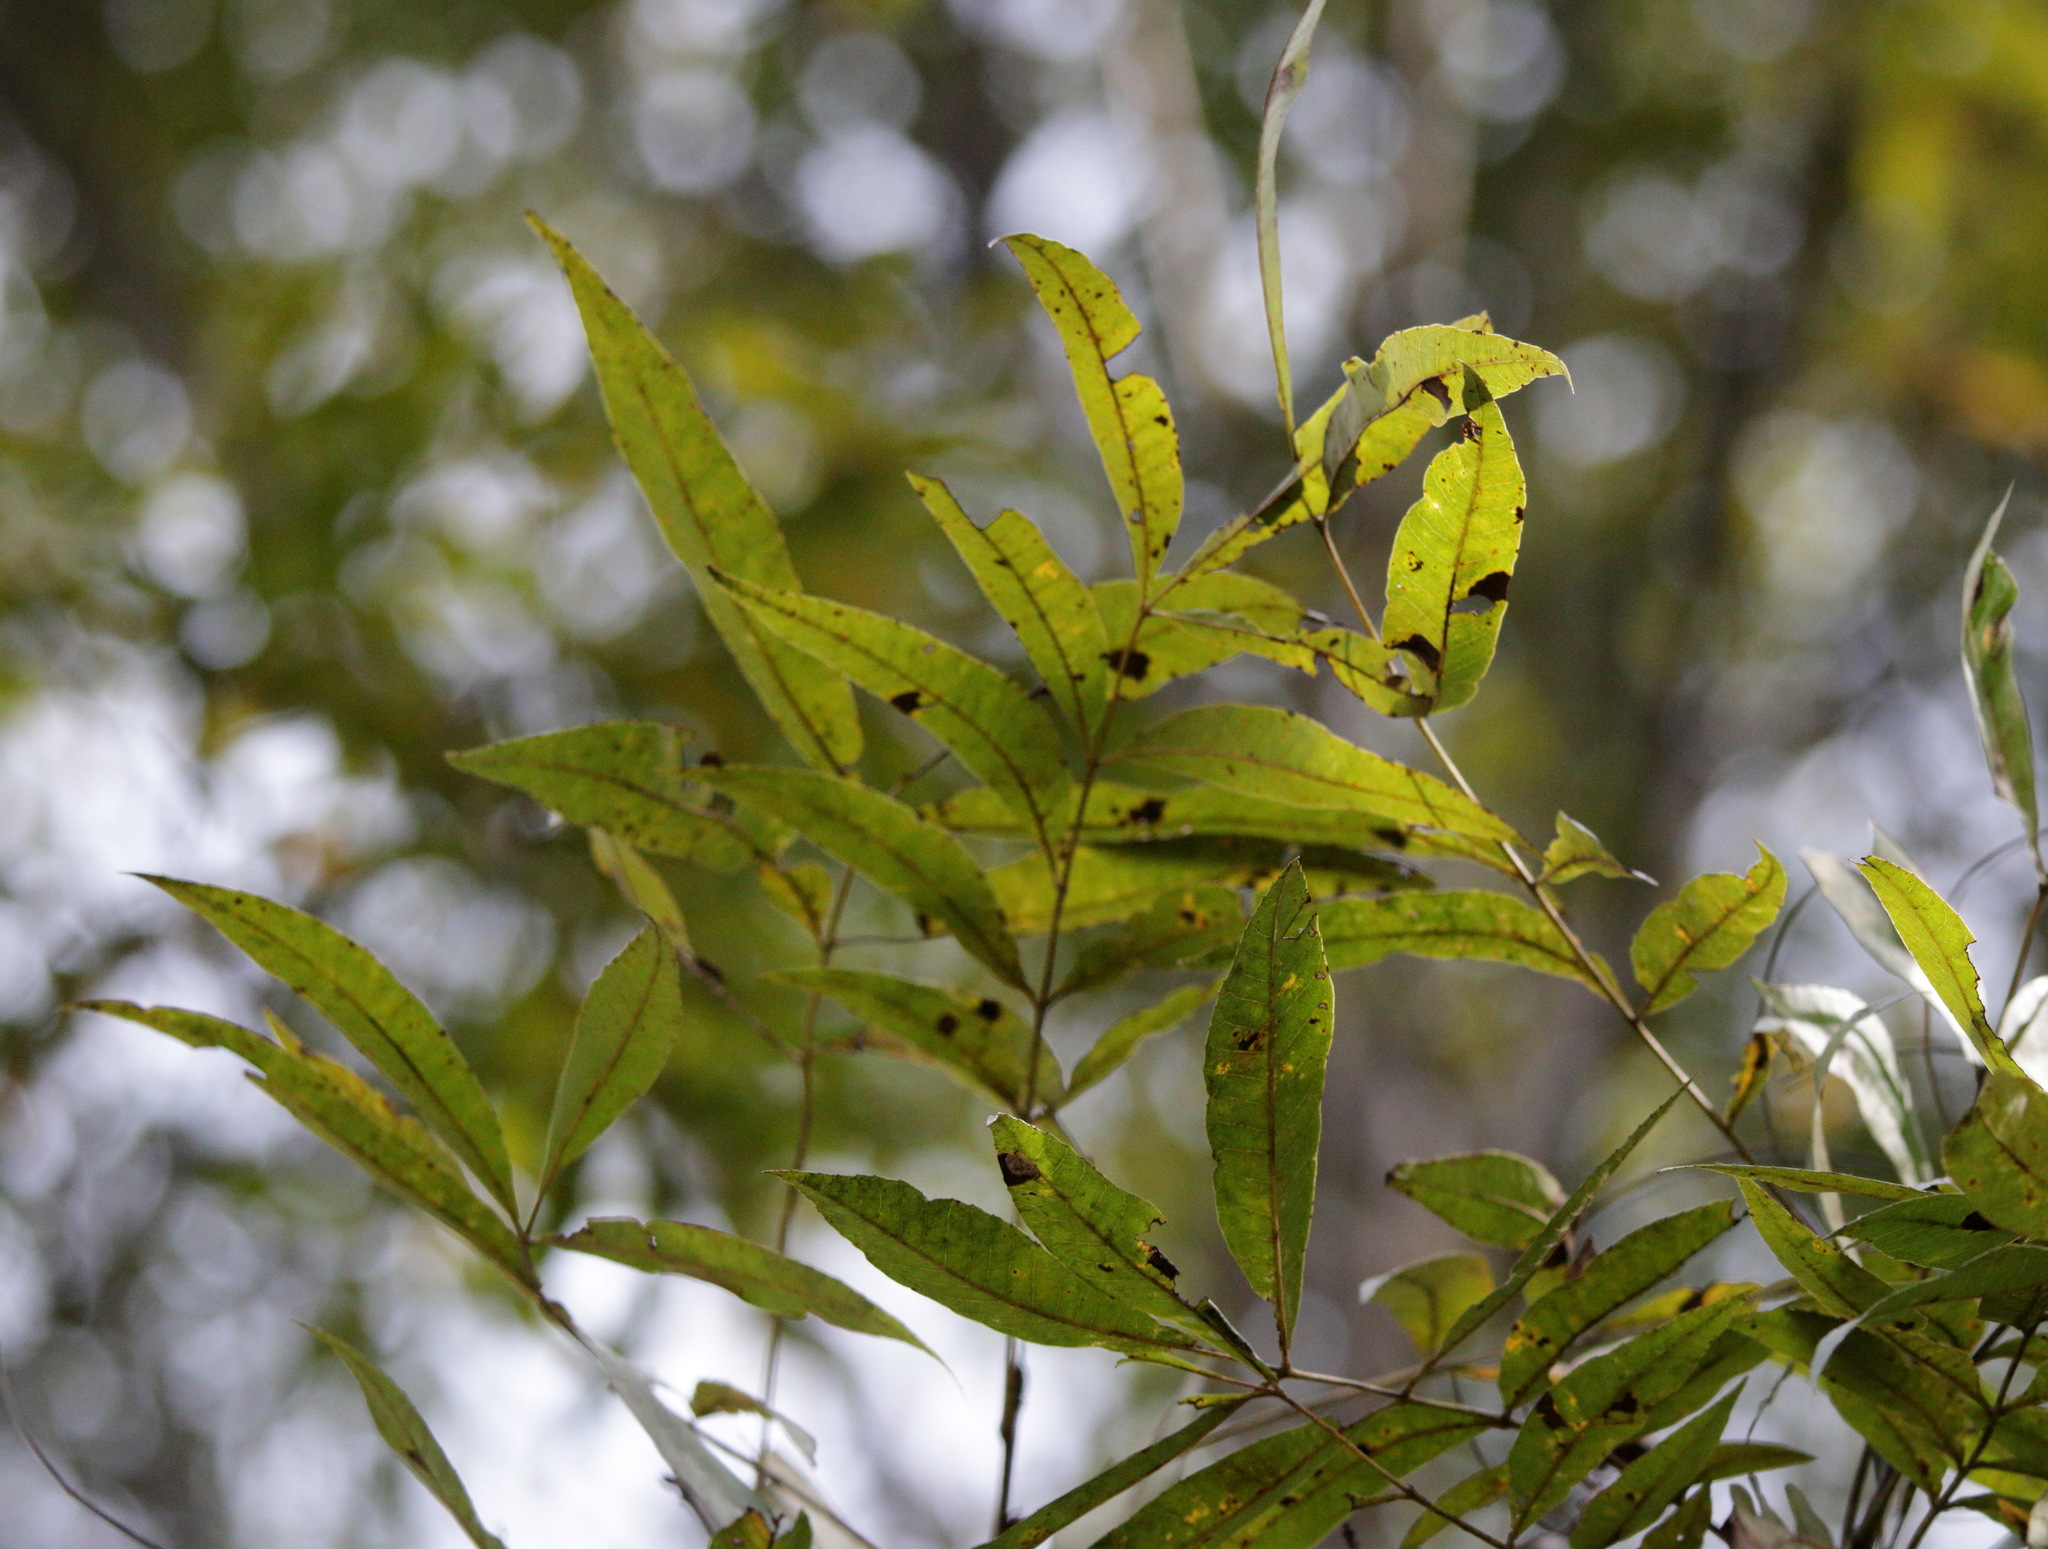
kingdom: Plantae
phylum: Tracheophyta
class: Magnoliopsida
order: Fagales
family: Juglandaceae
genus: Carya
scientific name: Carya aquatica
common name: Water hickory
